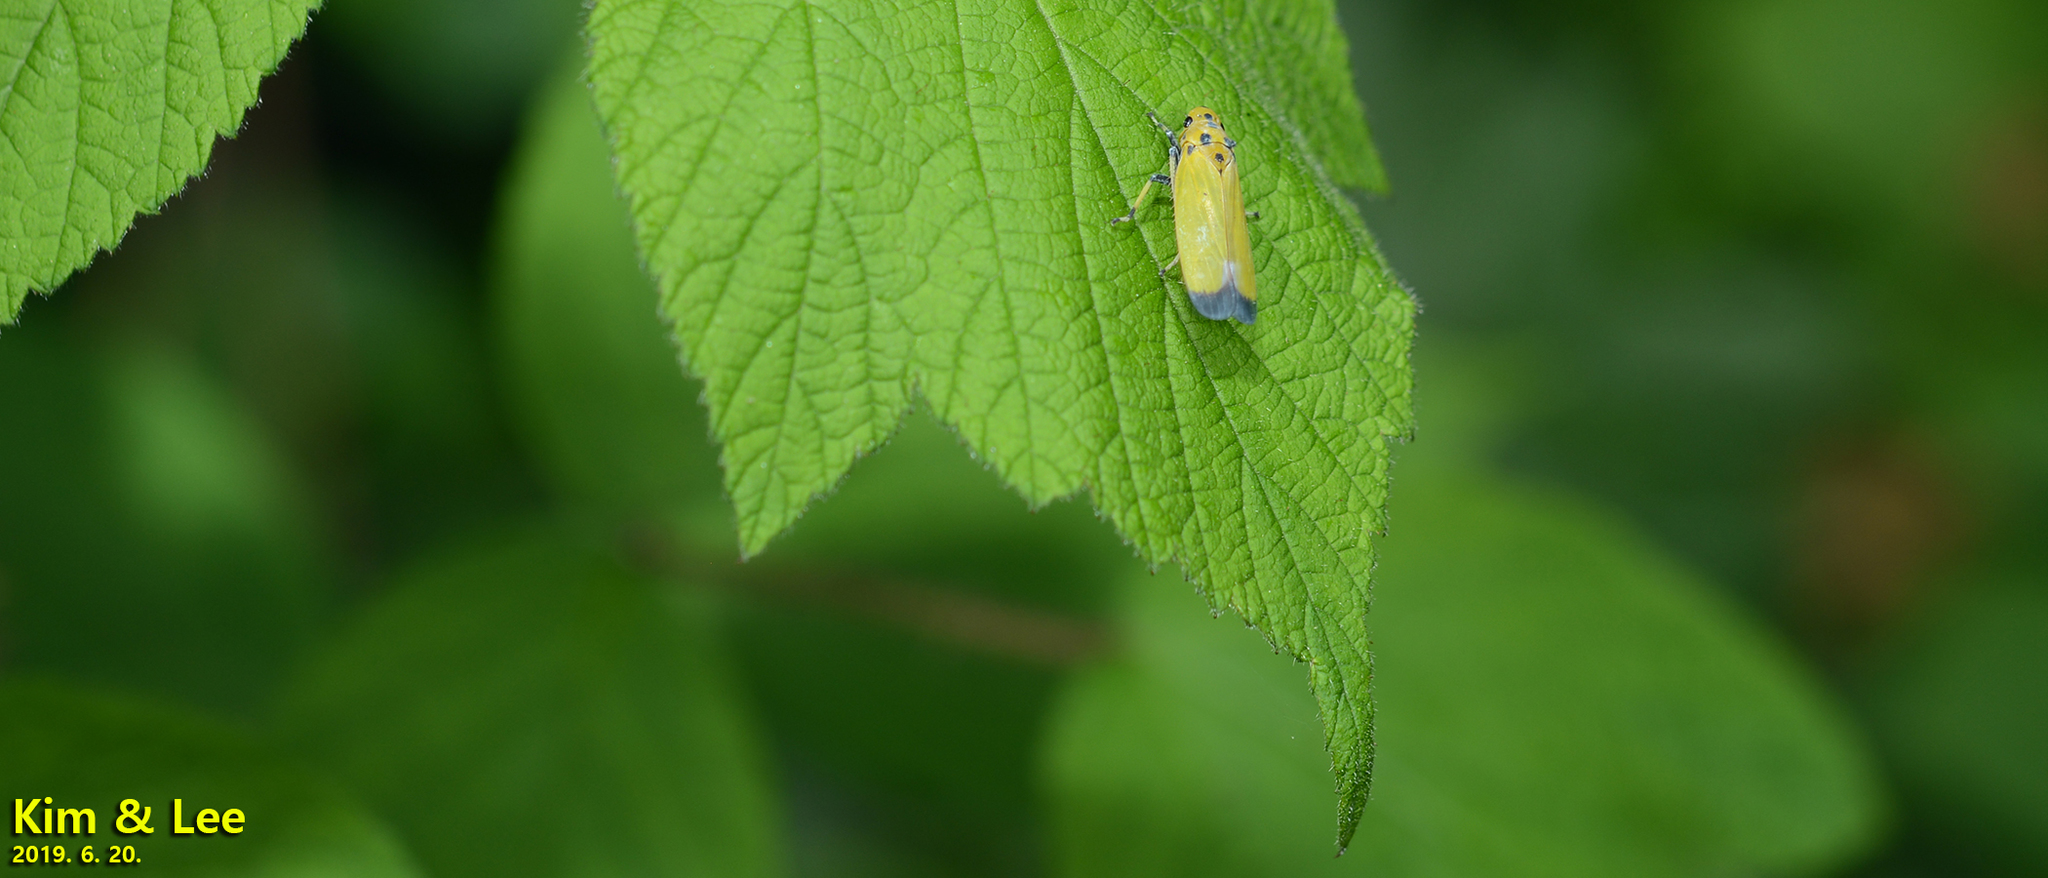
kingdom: Animalia
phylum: Arthropoda
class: Insecta
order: Hemiptera
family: Cicadellidae
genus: Bothrogonia
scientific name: Bothrogonia ferruginea
